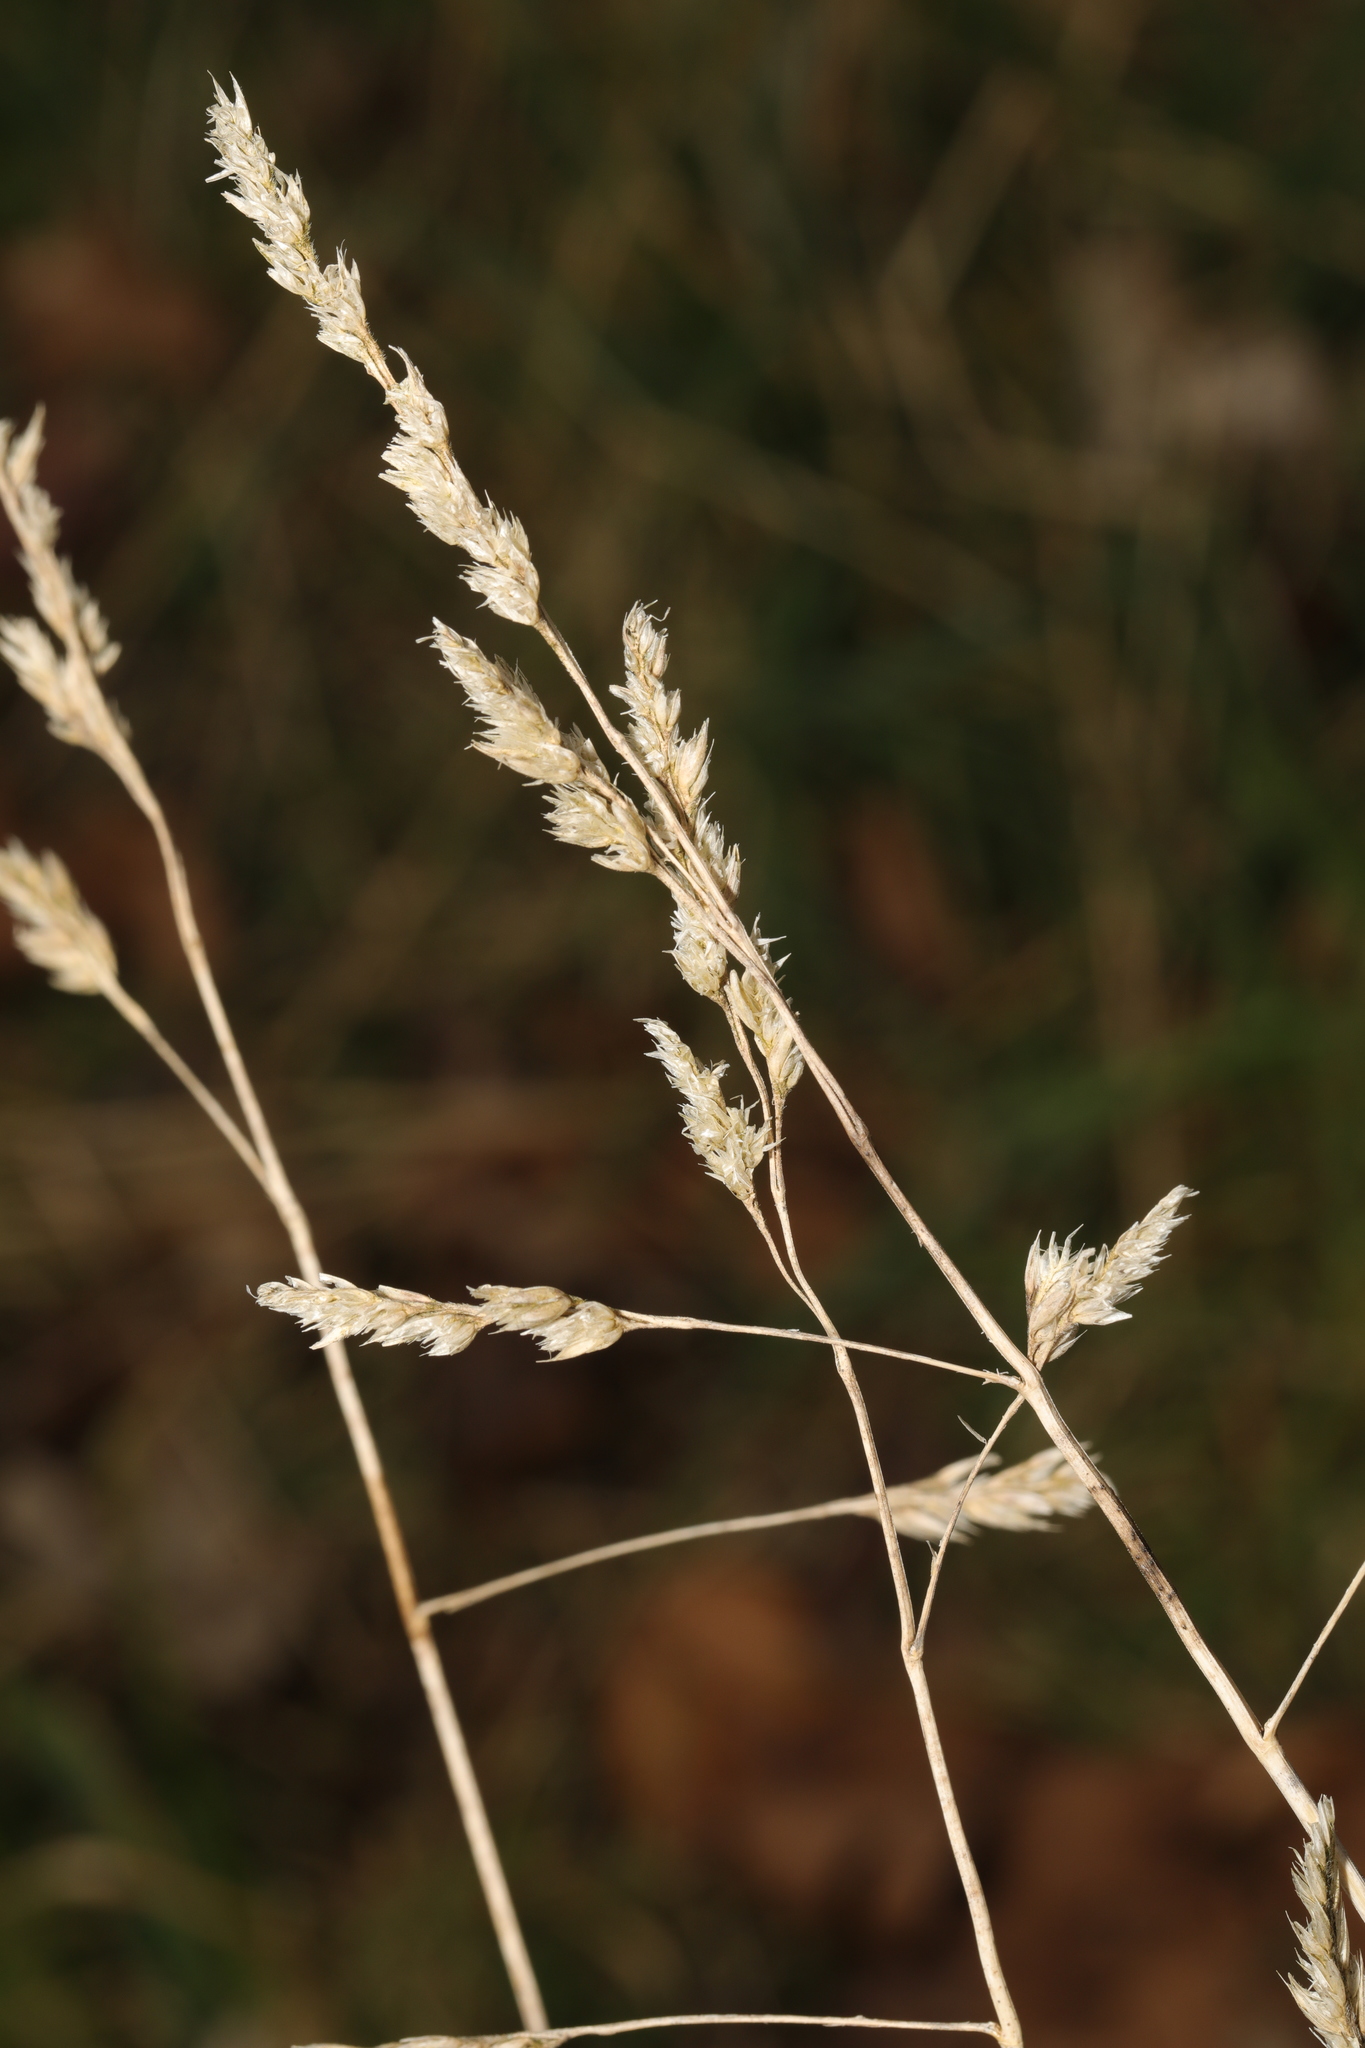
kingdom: Plantae
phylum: Tracheophyta
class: Liliopsida
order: Poales
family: Poaceae
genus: Dactylis
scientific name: Dactylis glomerata
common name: Orchardgrass
